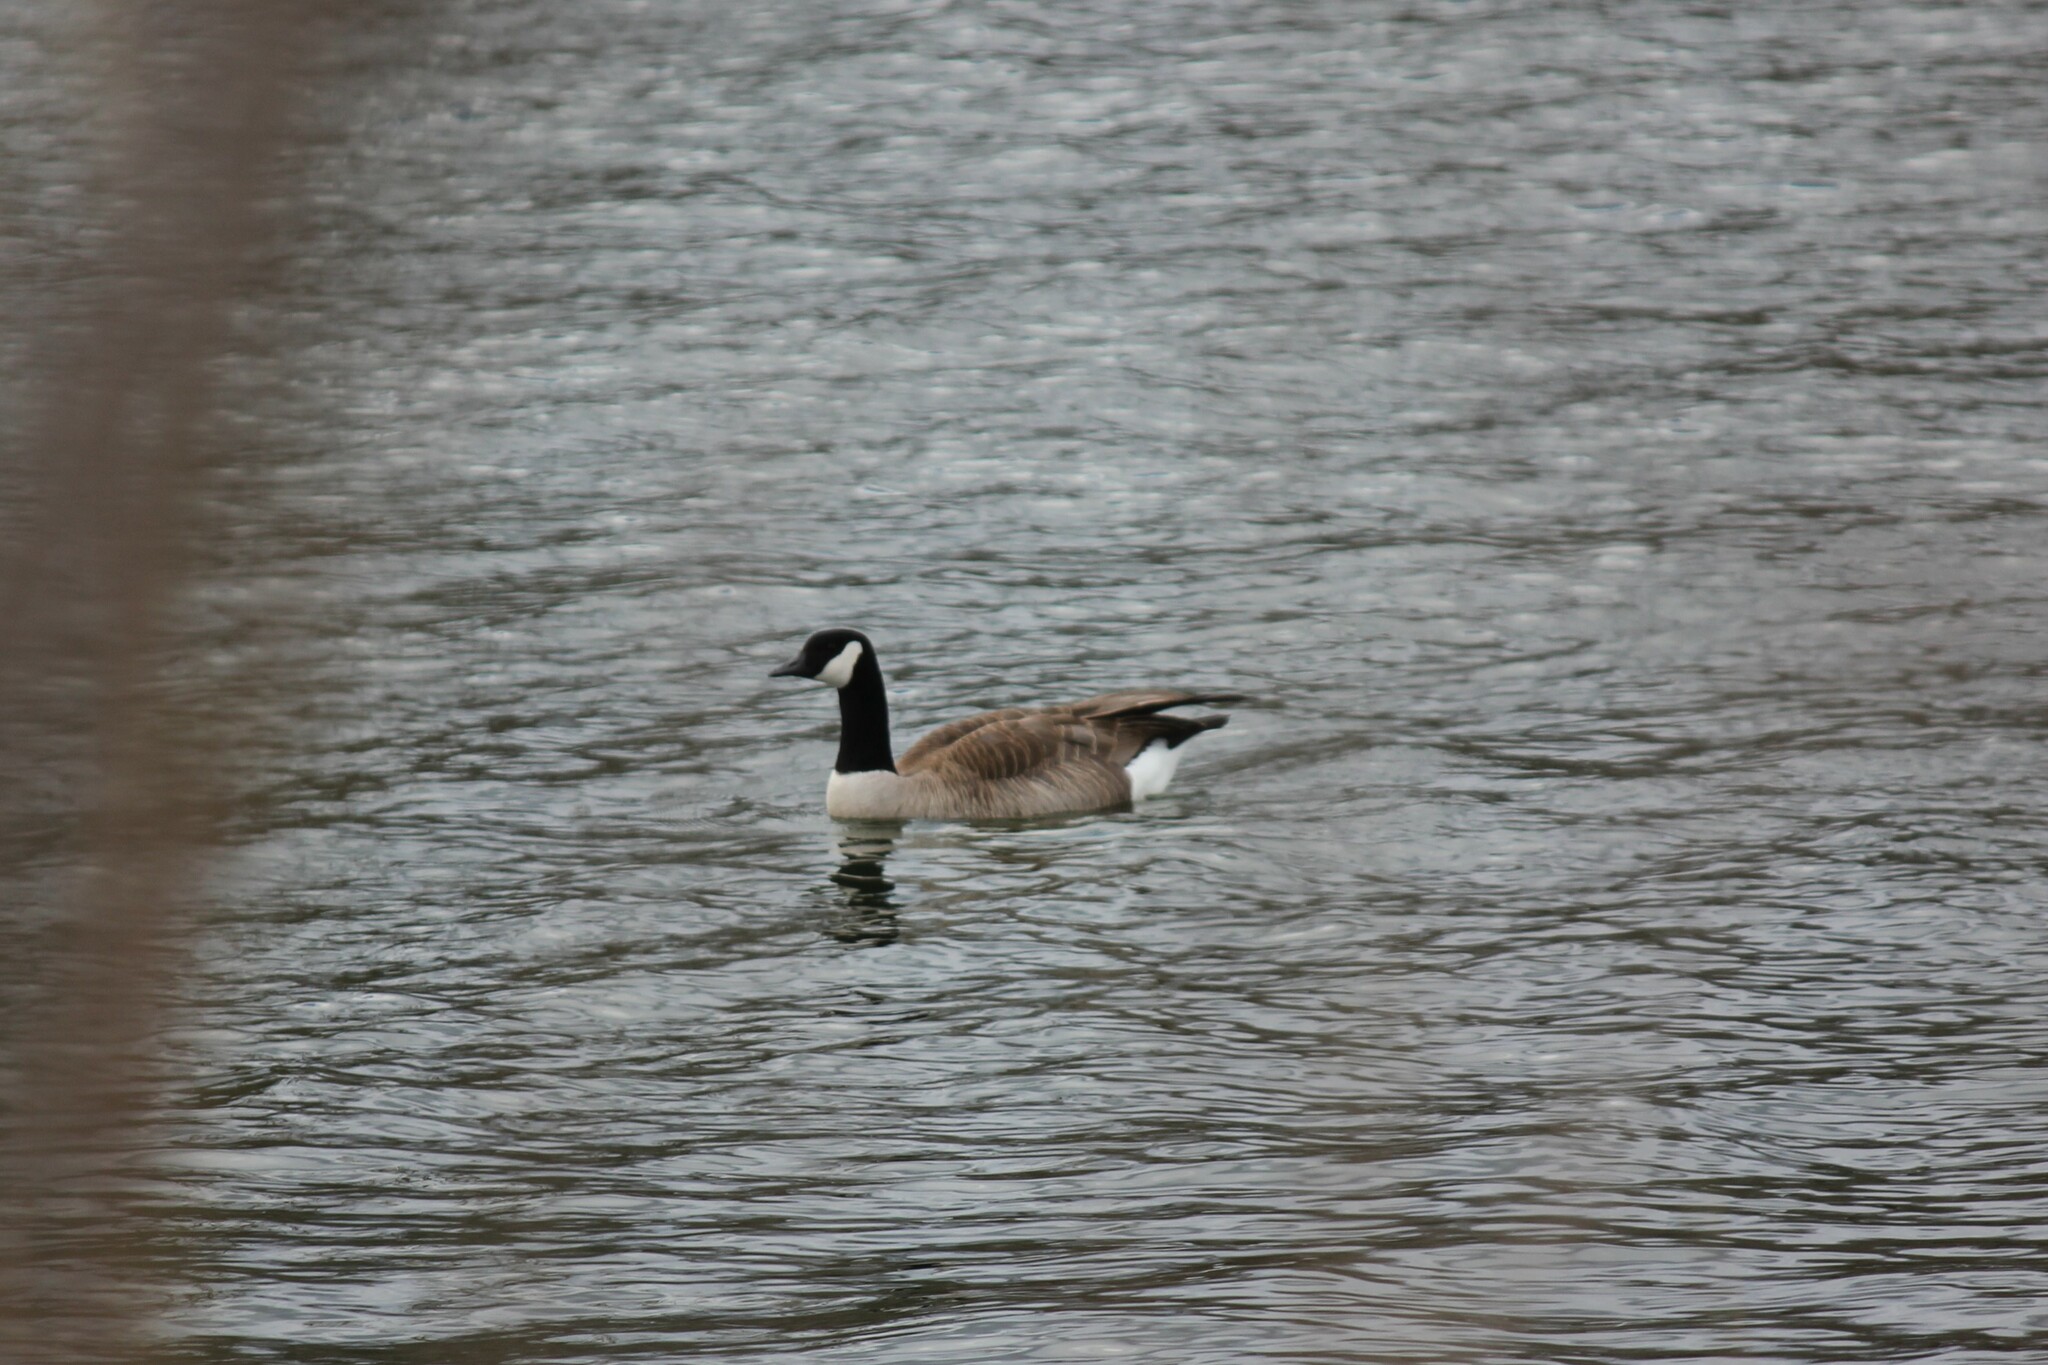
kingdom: Animalia
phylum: Chordata
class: Aves
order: Anseriformes
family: Anatidae
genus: Branta
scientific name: Branta canadensis
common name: Canada goose
